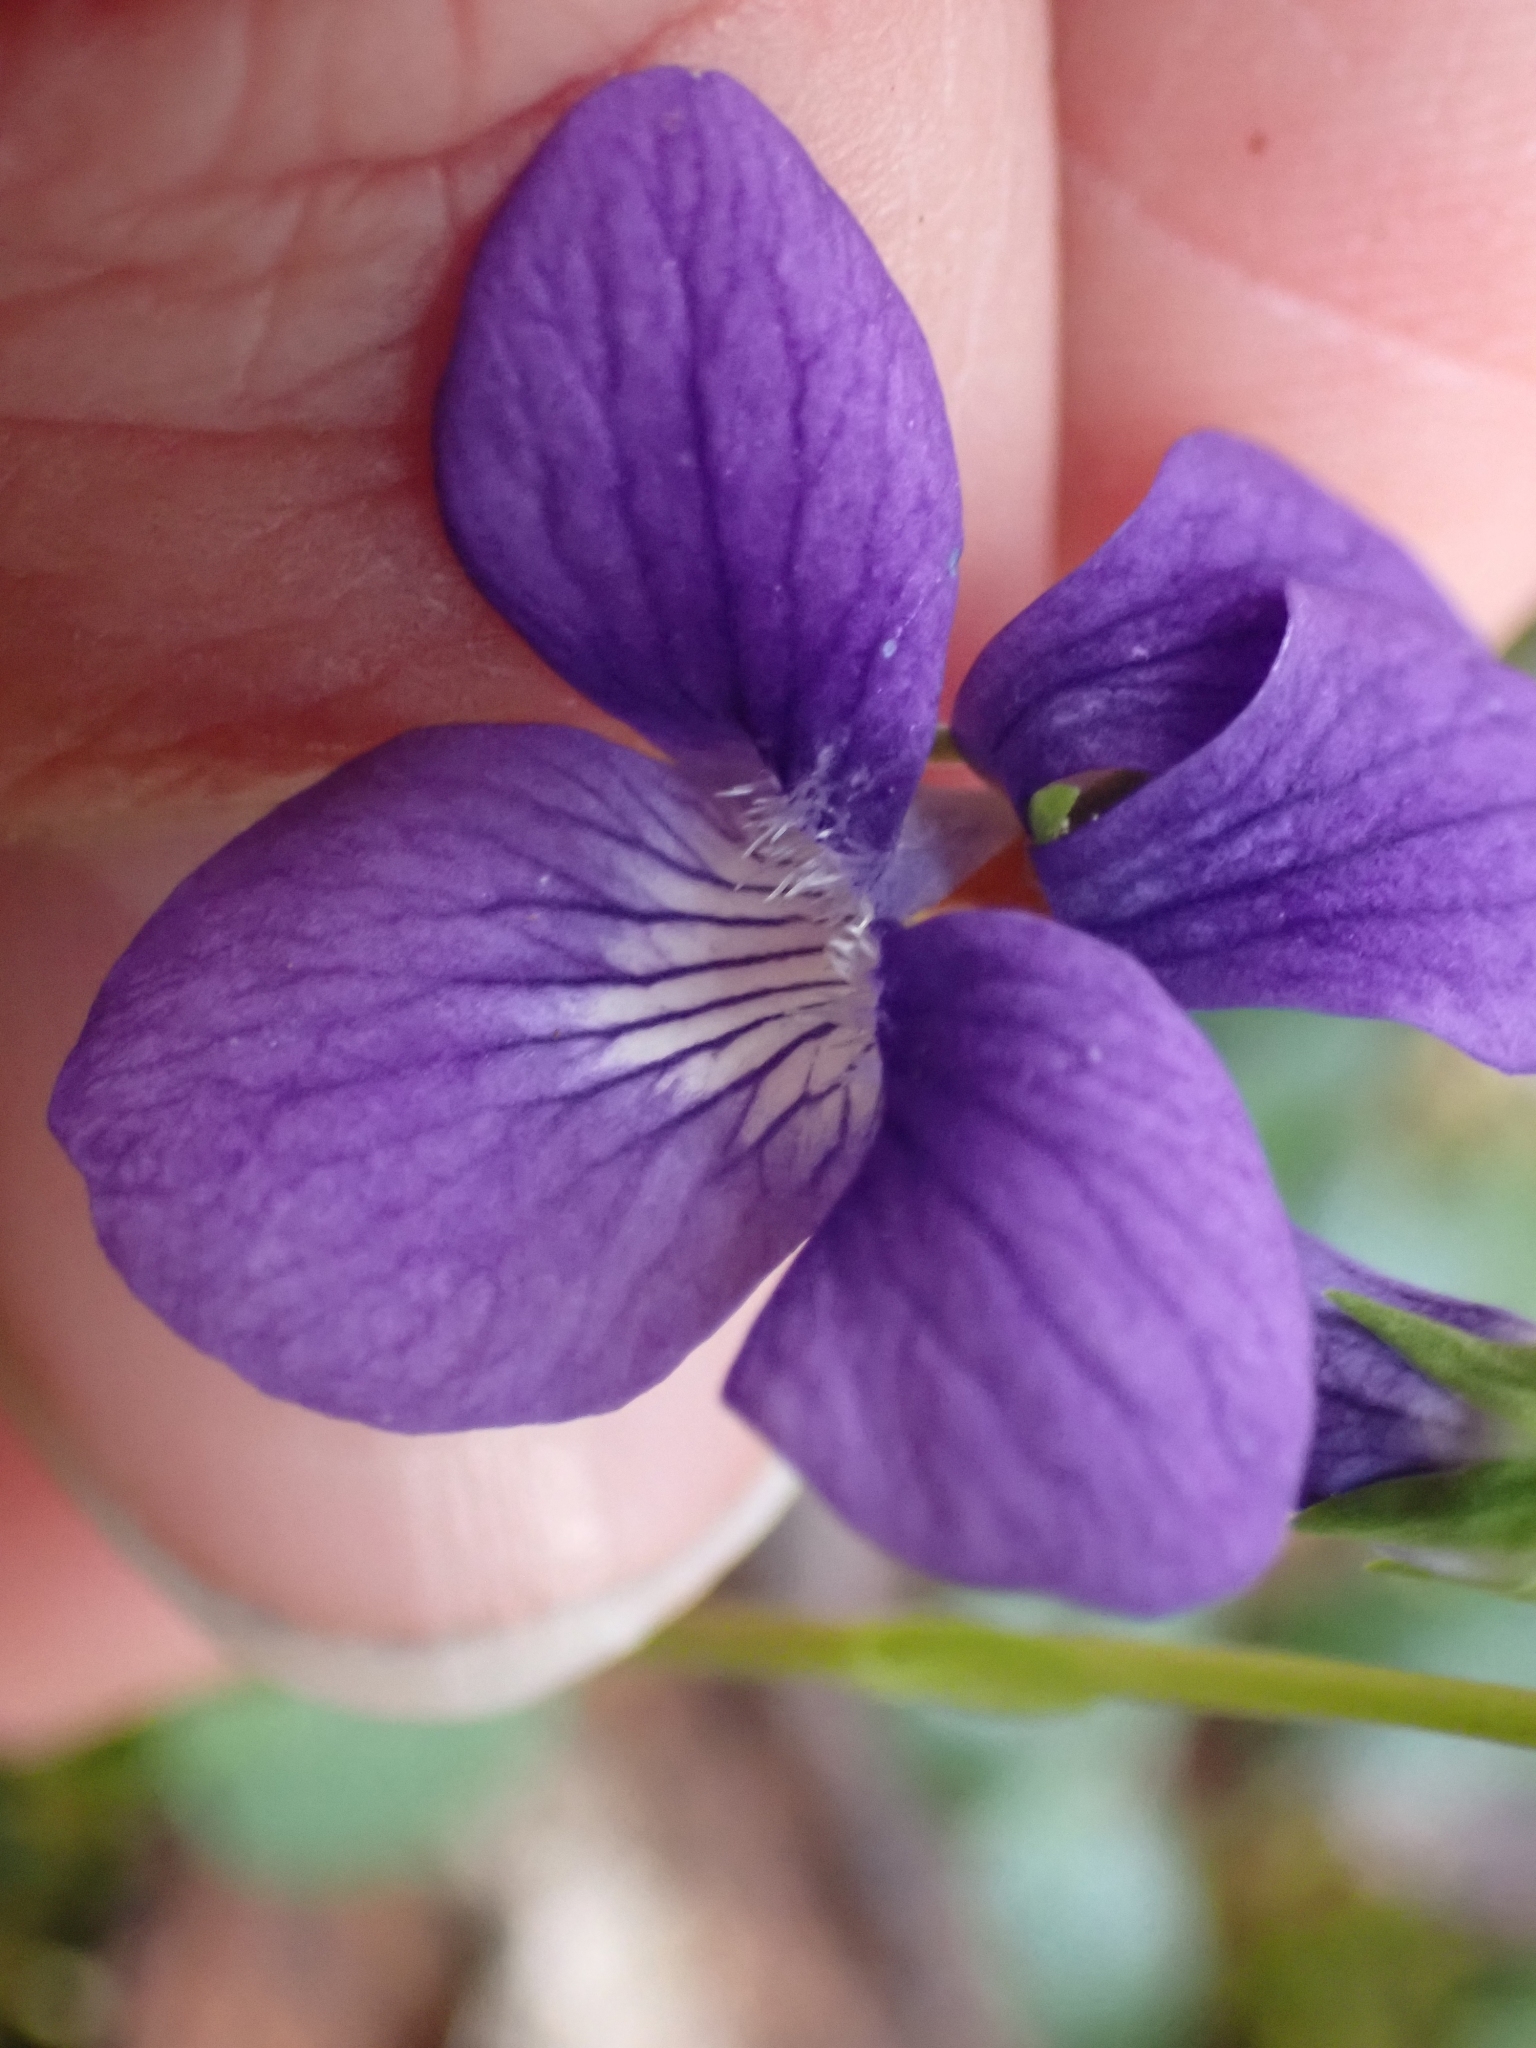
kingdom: Plantae
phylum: Tracheophyta
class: Magnoliopsida
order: Malpighiales
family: Violaceae
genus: Viola
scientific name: Viola adunca
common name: Sand violet
